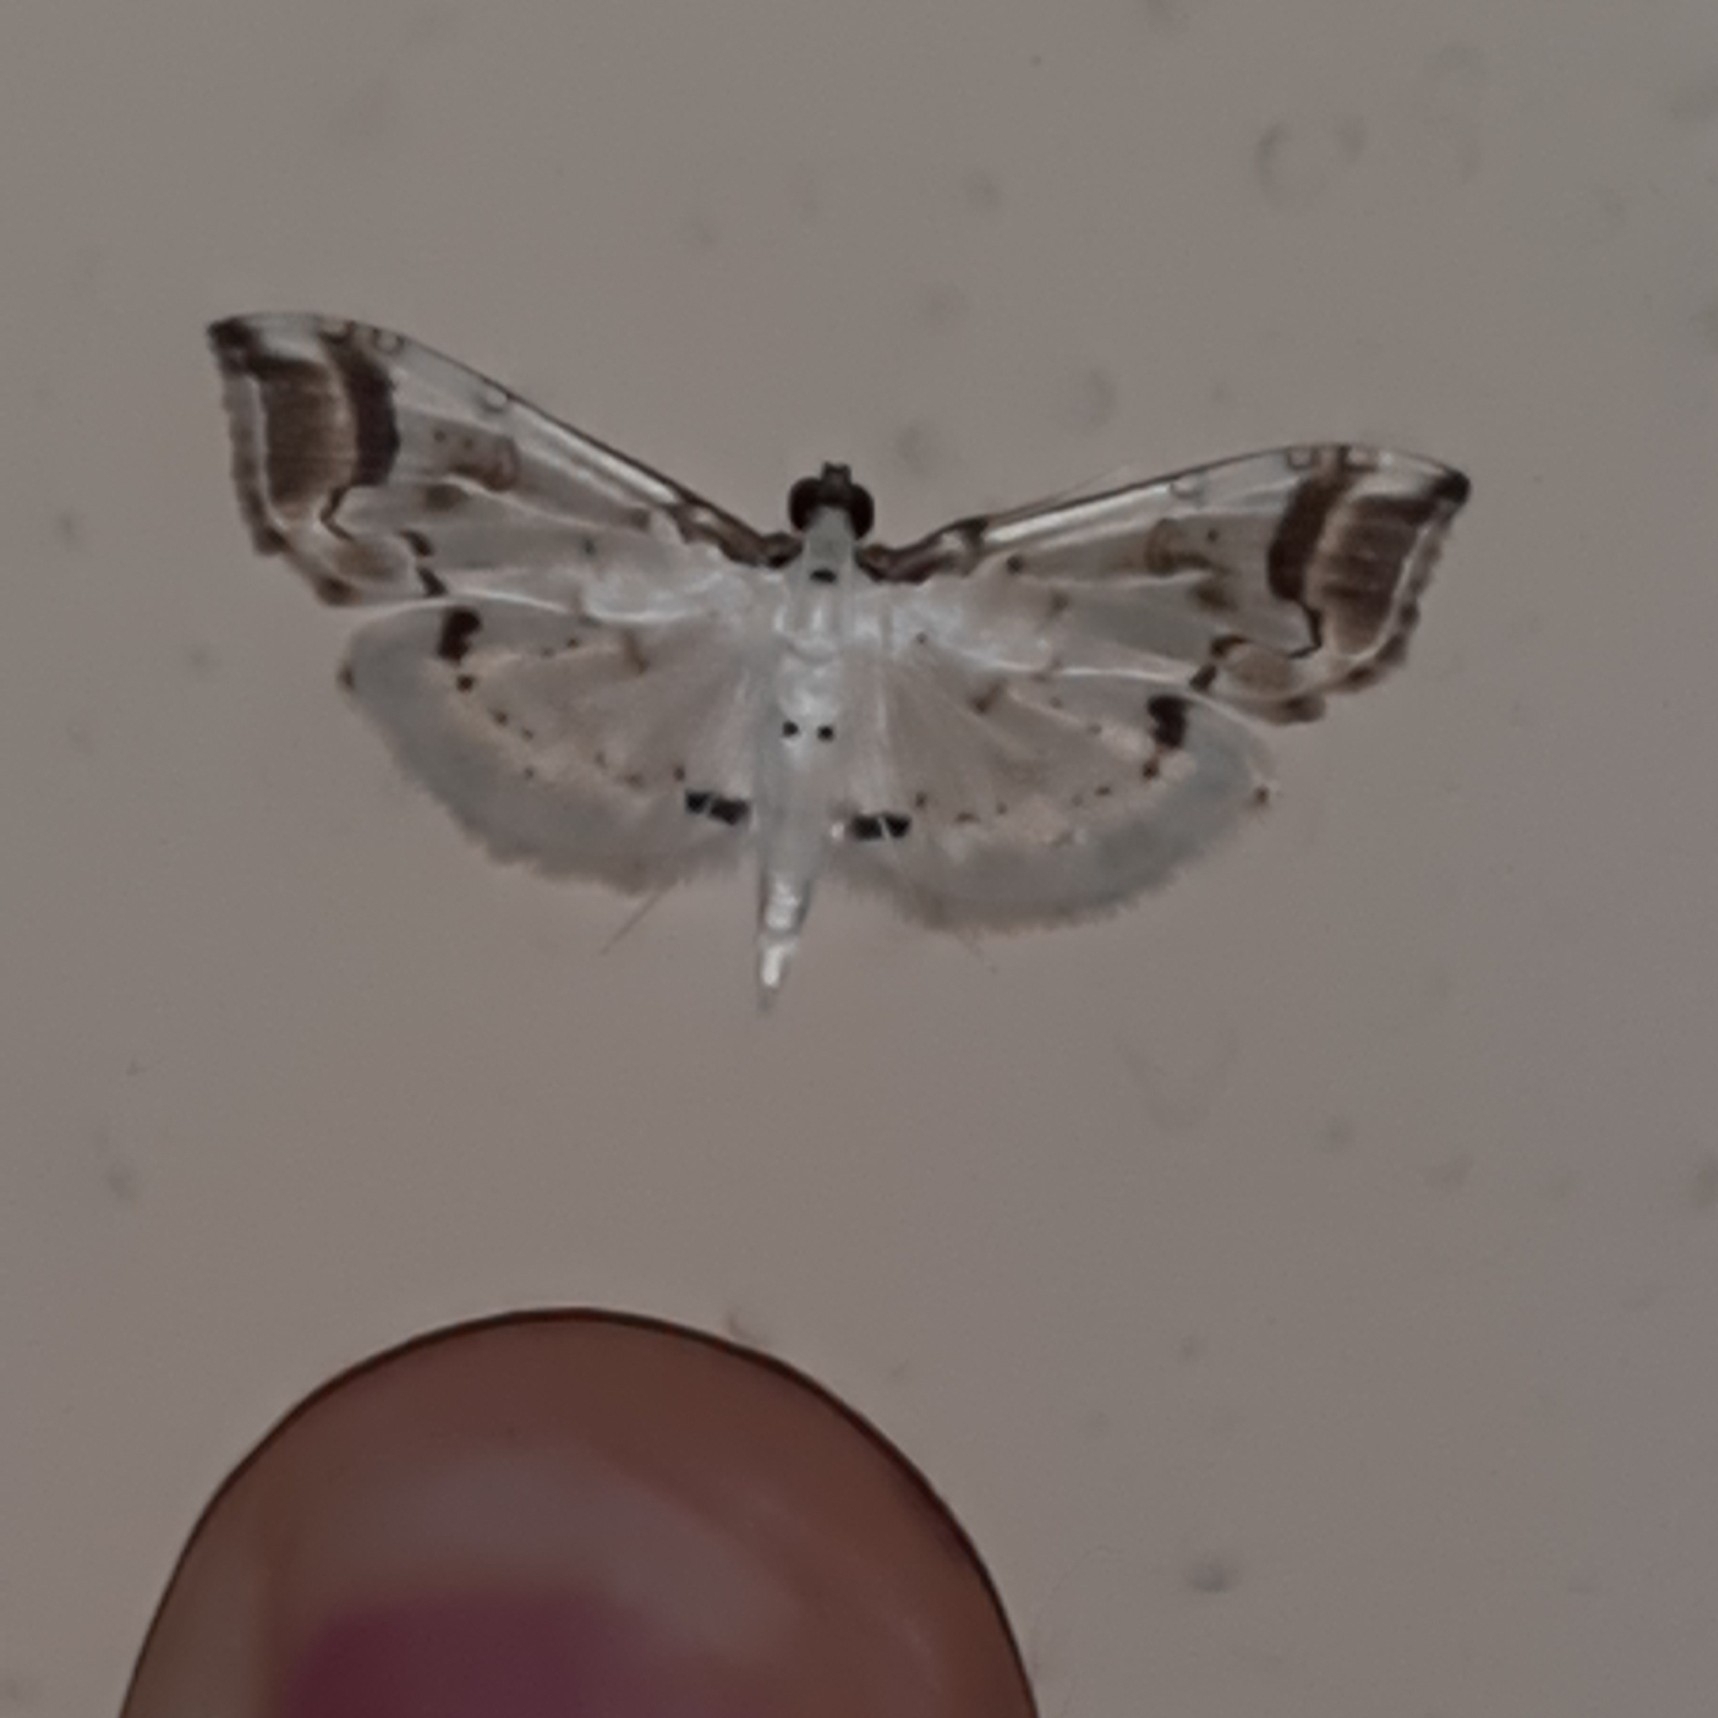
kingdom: Animalia
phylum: Arthropoda
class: Insecta
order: Lepidoptera
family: Crambidae
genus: Pycnarmon
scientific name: Pycnarmon leucinodialis
